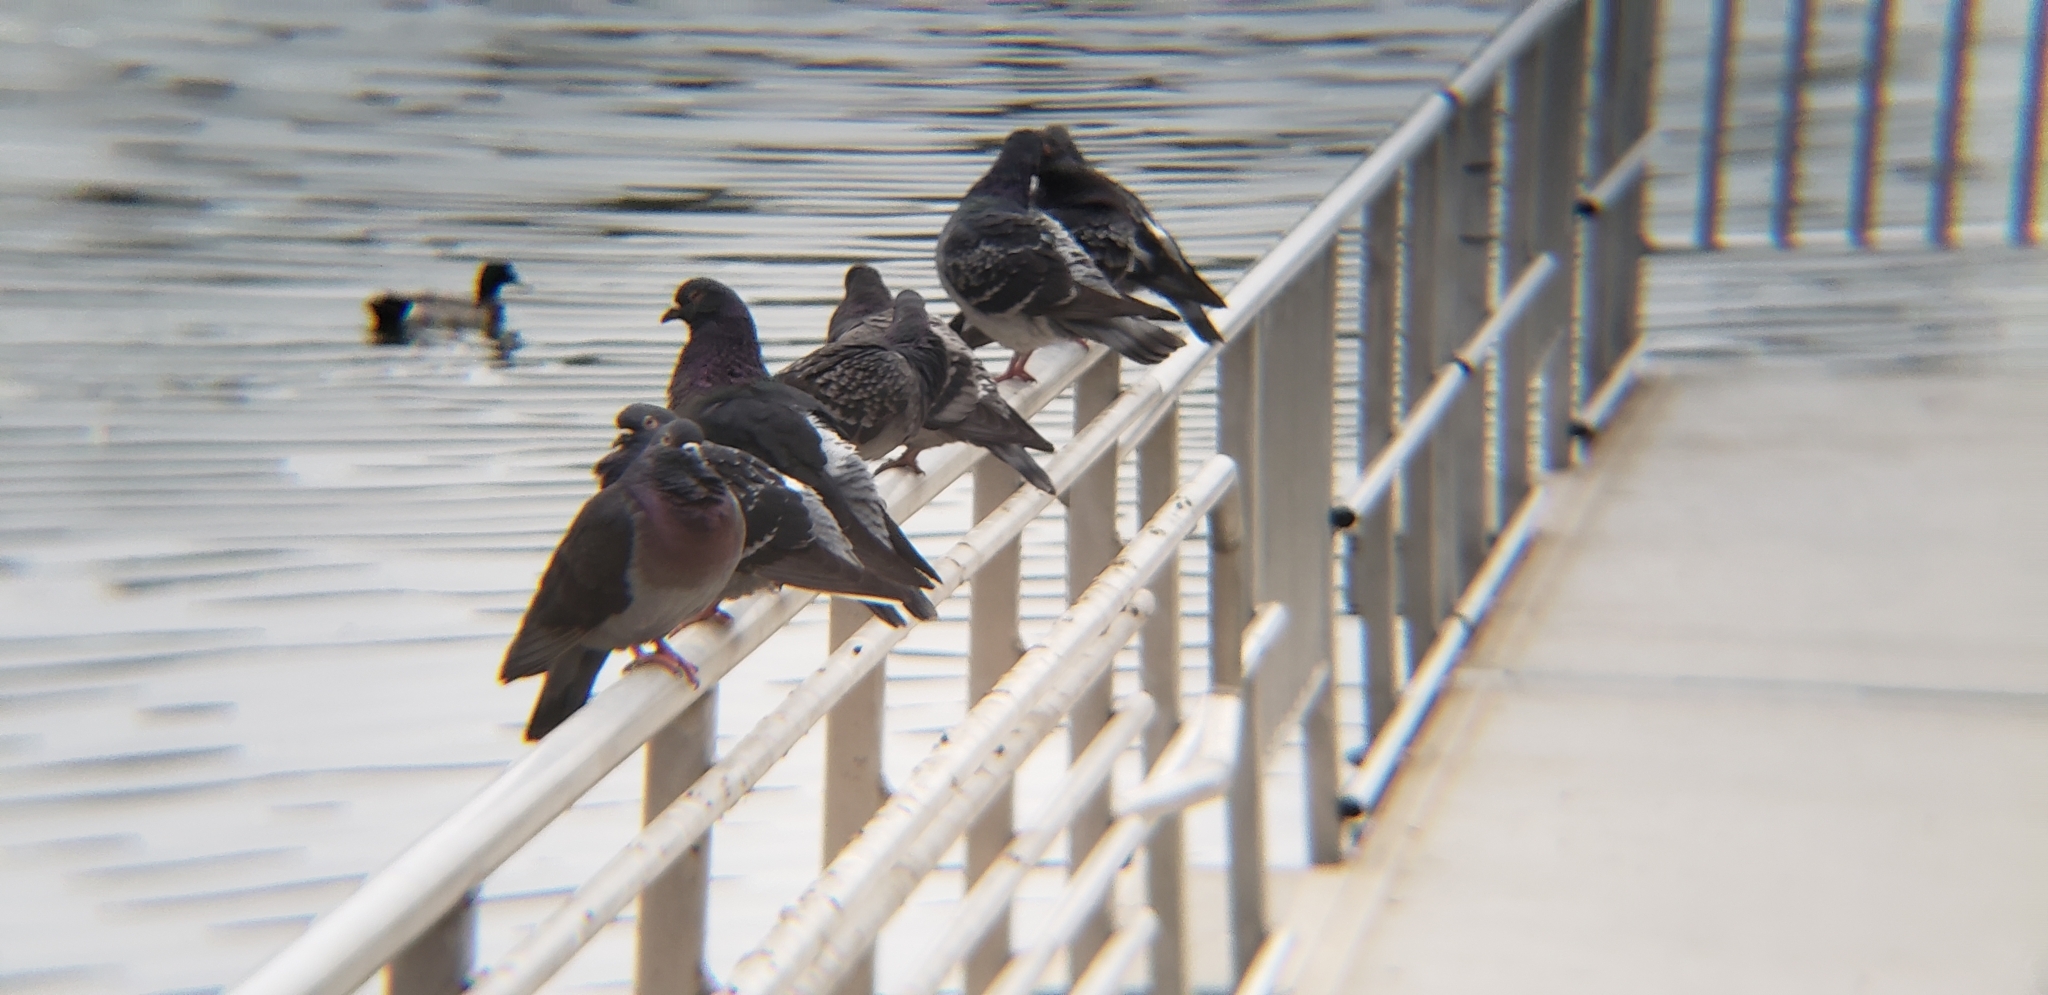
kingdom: Animalia
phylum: Chordata
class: Aves
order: Columbiformes
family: Columbidae
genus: Columba
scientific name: Columba livia
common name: Rock pigeon
